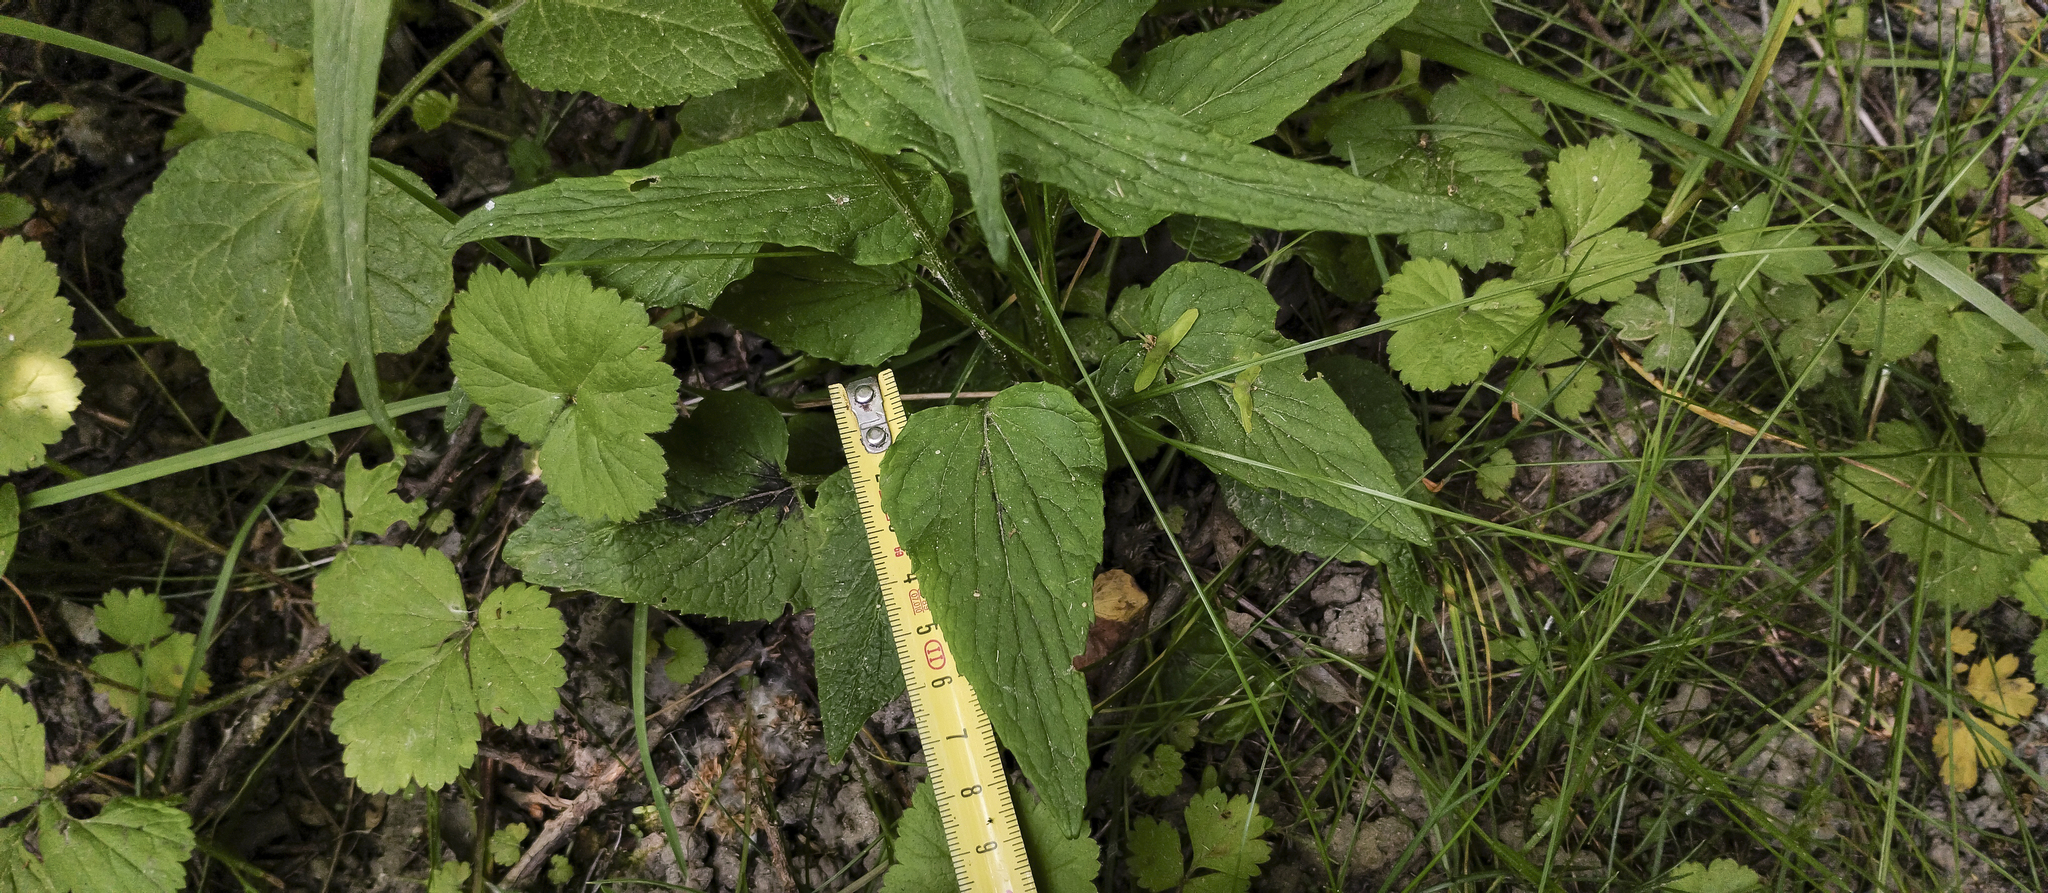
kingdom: Plantae
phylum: Tracheophyta
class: Magnoliopsida
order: Asterales
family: Campanulaceae
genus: Phyteuma
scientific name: Phyteuma spicatum
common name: Spiked rampion
